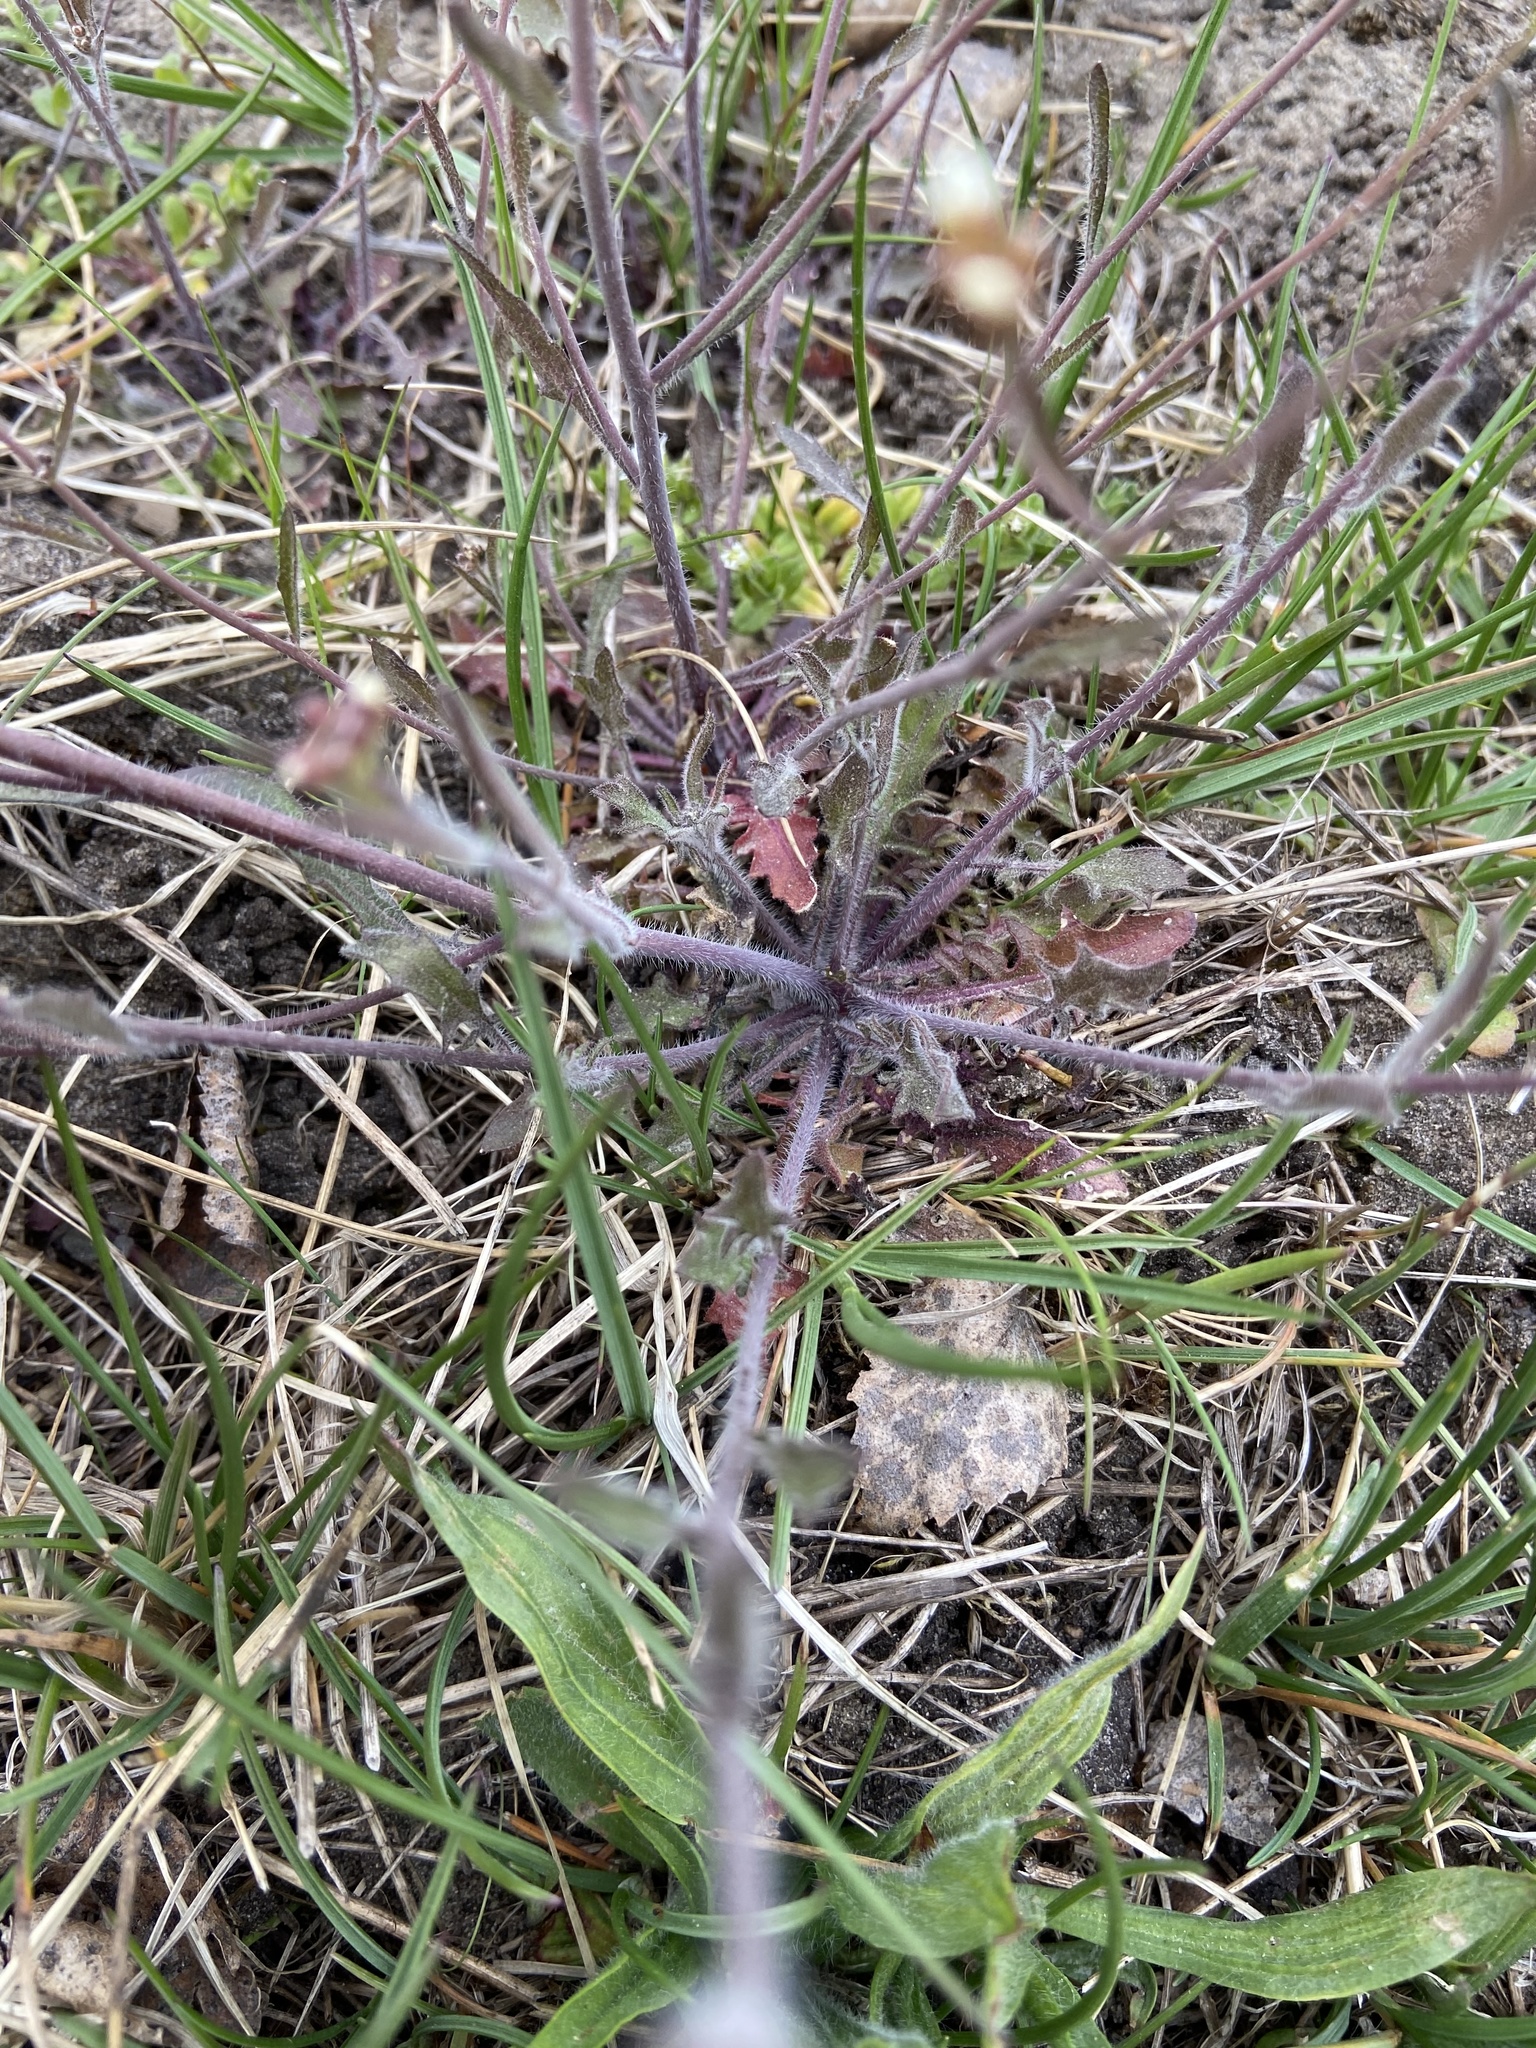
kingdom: Plantae
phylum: Tracheophyta
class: Magnoliopsida
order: Brassicales
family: Brassicaceae
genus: Arabidopsis
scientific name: Arabidopsis arenosa
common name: Sand rock-cress
